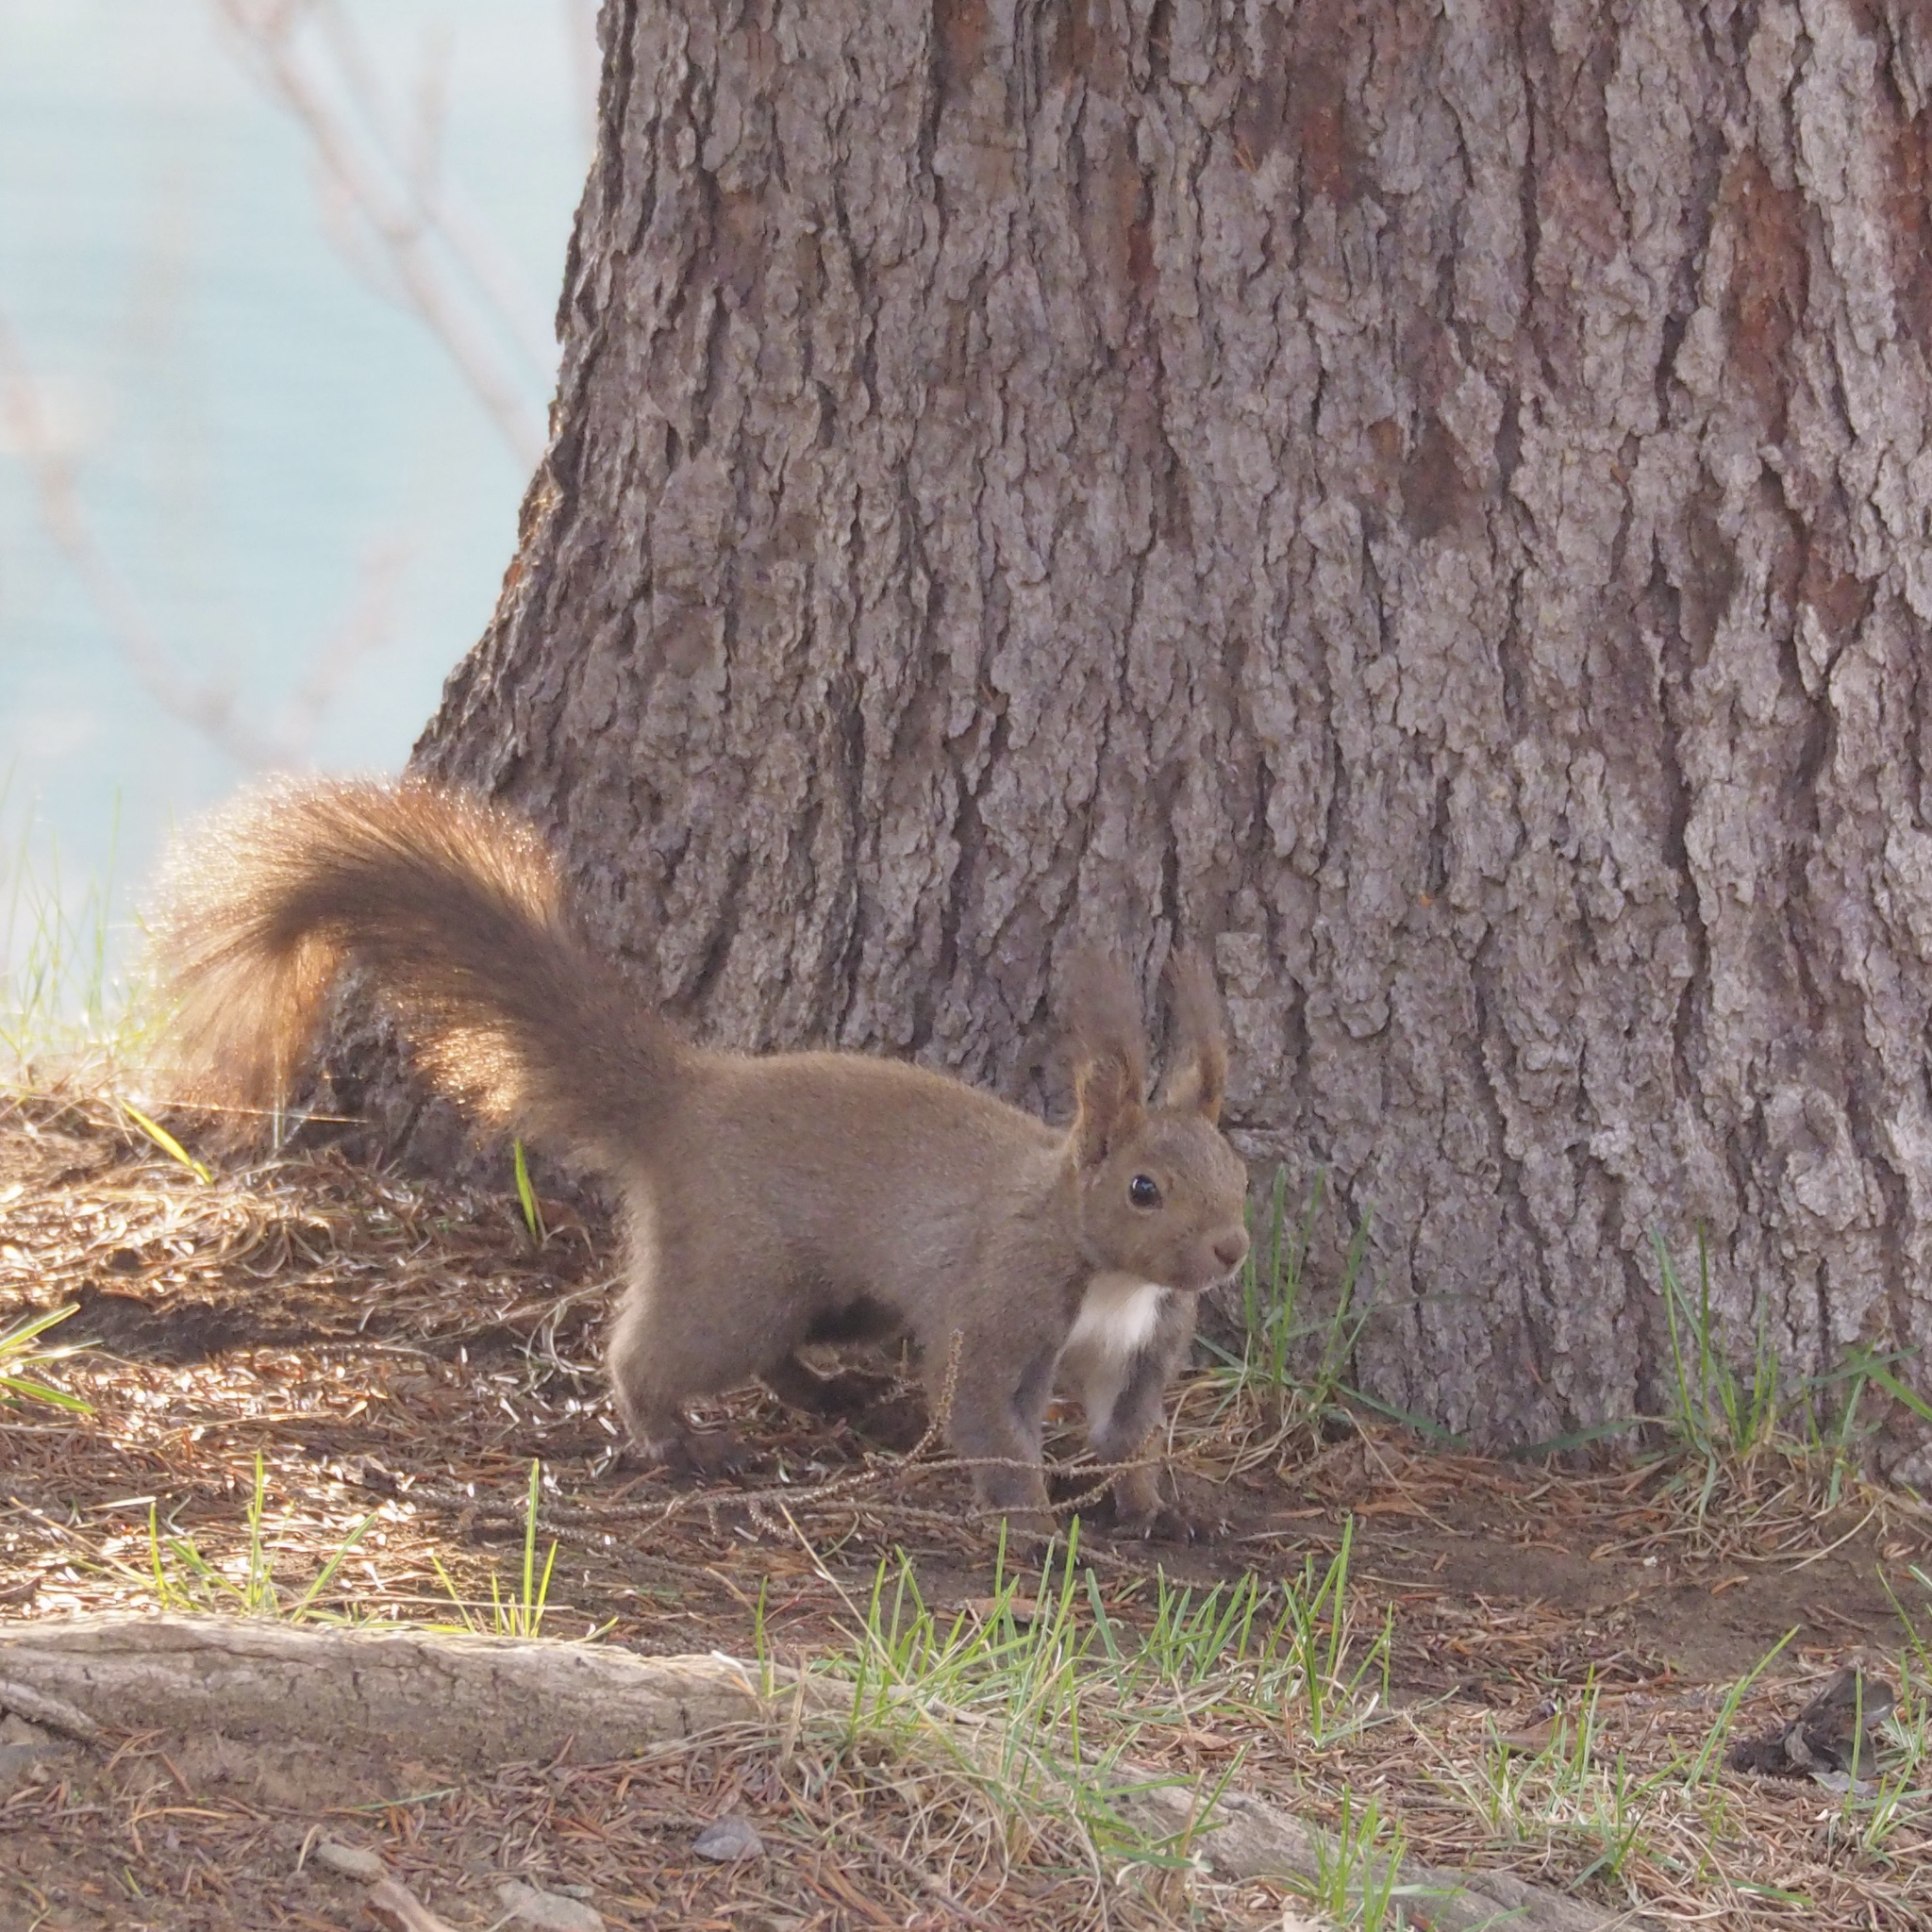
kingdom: Animalia
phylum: Chordata
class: Mammalia
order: Rodentia
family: Sciuridae
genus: Sciurus
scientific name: Sciurus vulgaris
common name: Eurasian red squirrel
